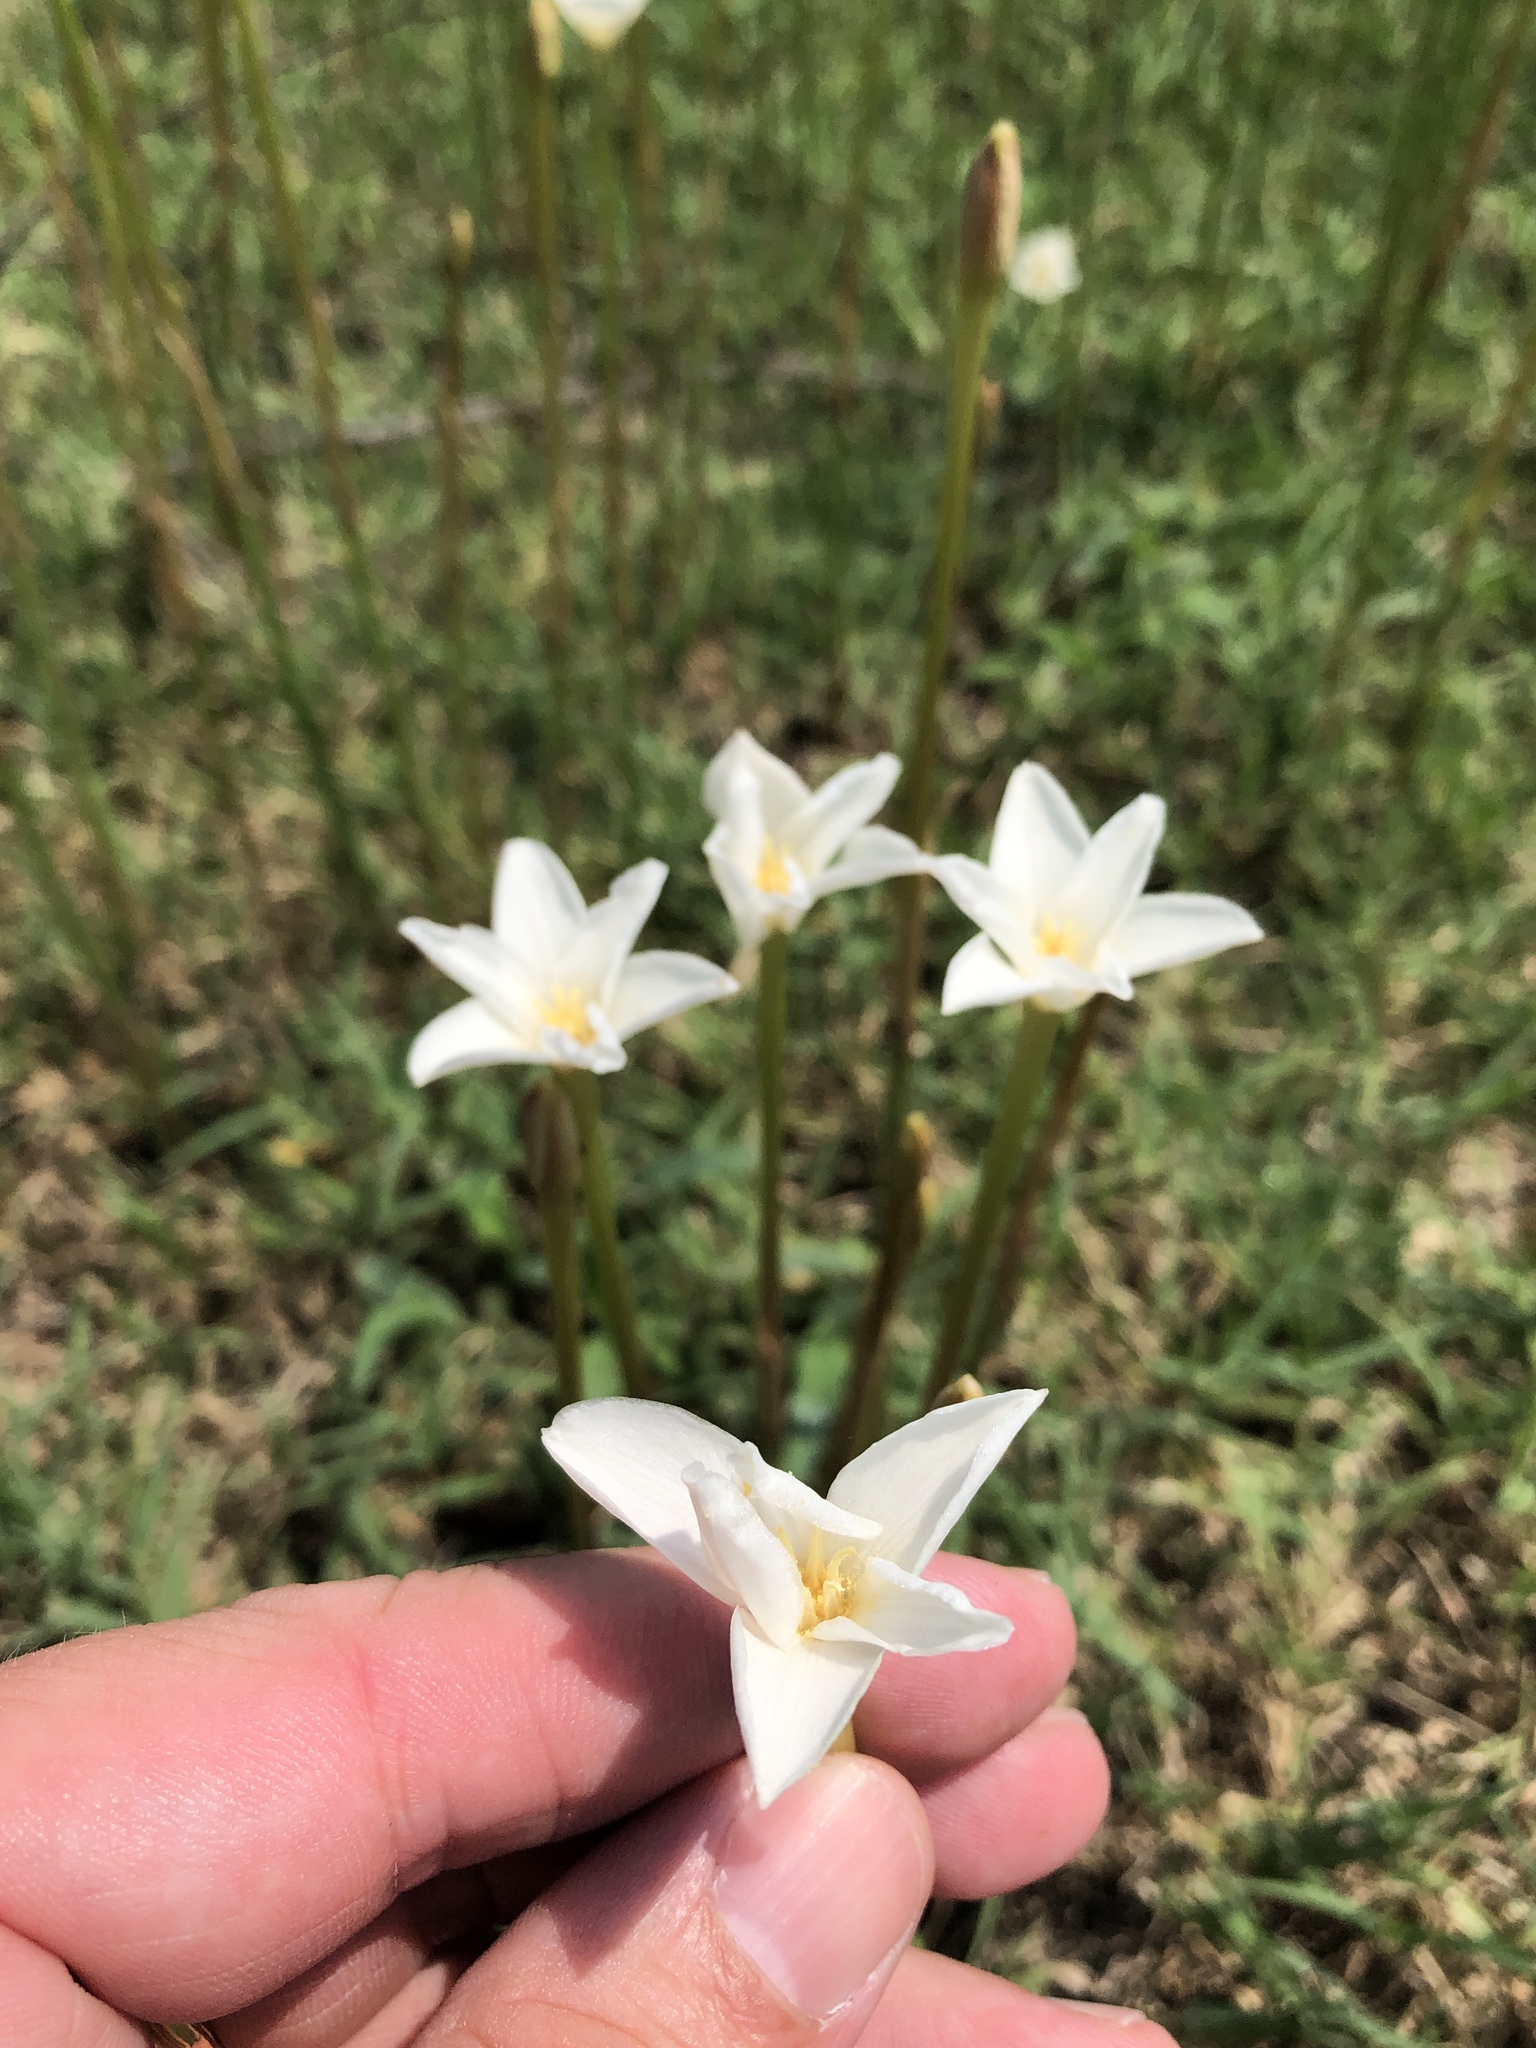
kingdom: Plantae
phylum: Tracheophyta
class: Liliopsida
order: Asparagales
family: Amaryllidaceae
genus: Zephyranthes
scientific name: Zephyranthes chlorosolen
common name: Evening rain-lily
